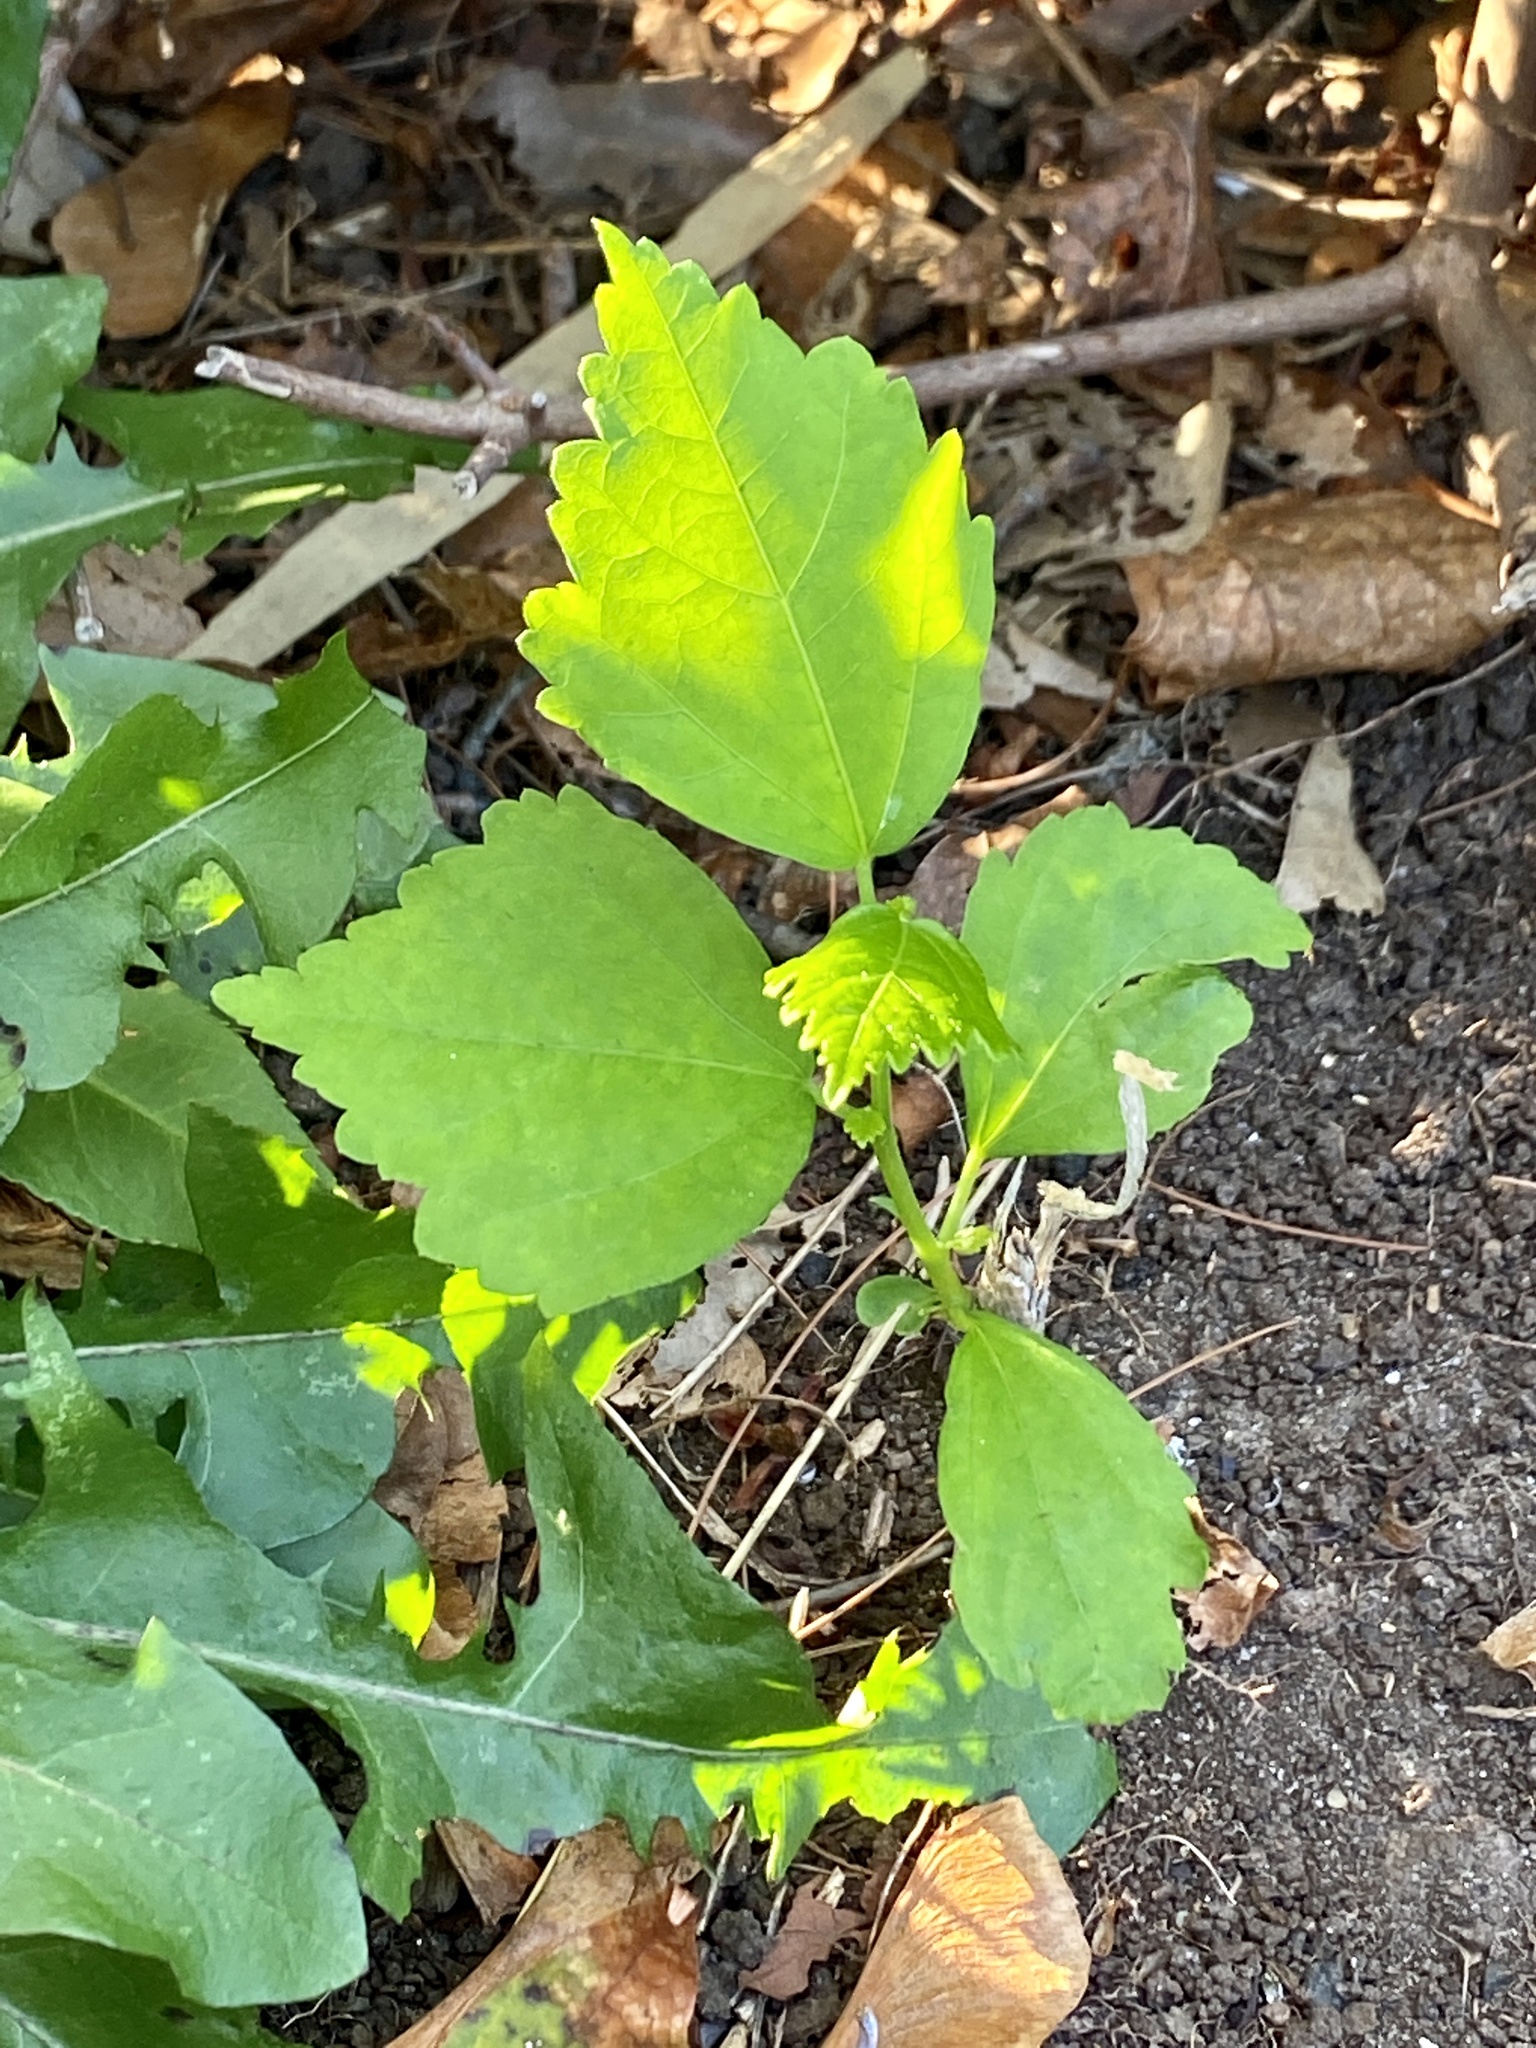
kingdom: Plantae
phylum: Tracheophyta
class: Magnoliopsida
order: Malvales
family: Malvaceae
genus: Hibiscus
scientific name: Hibiscus syriacus
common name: Syrian ketmia
